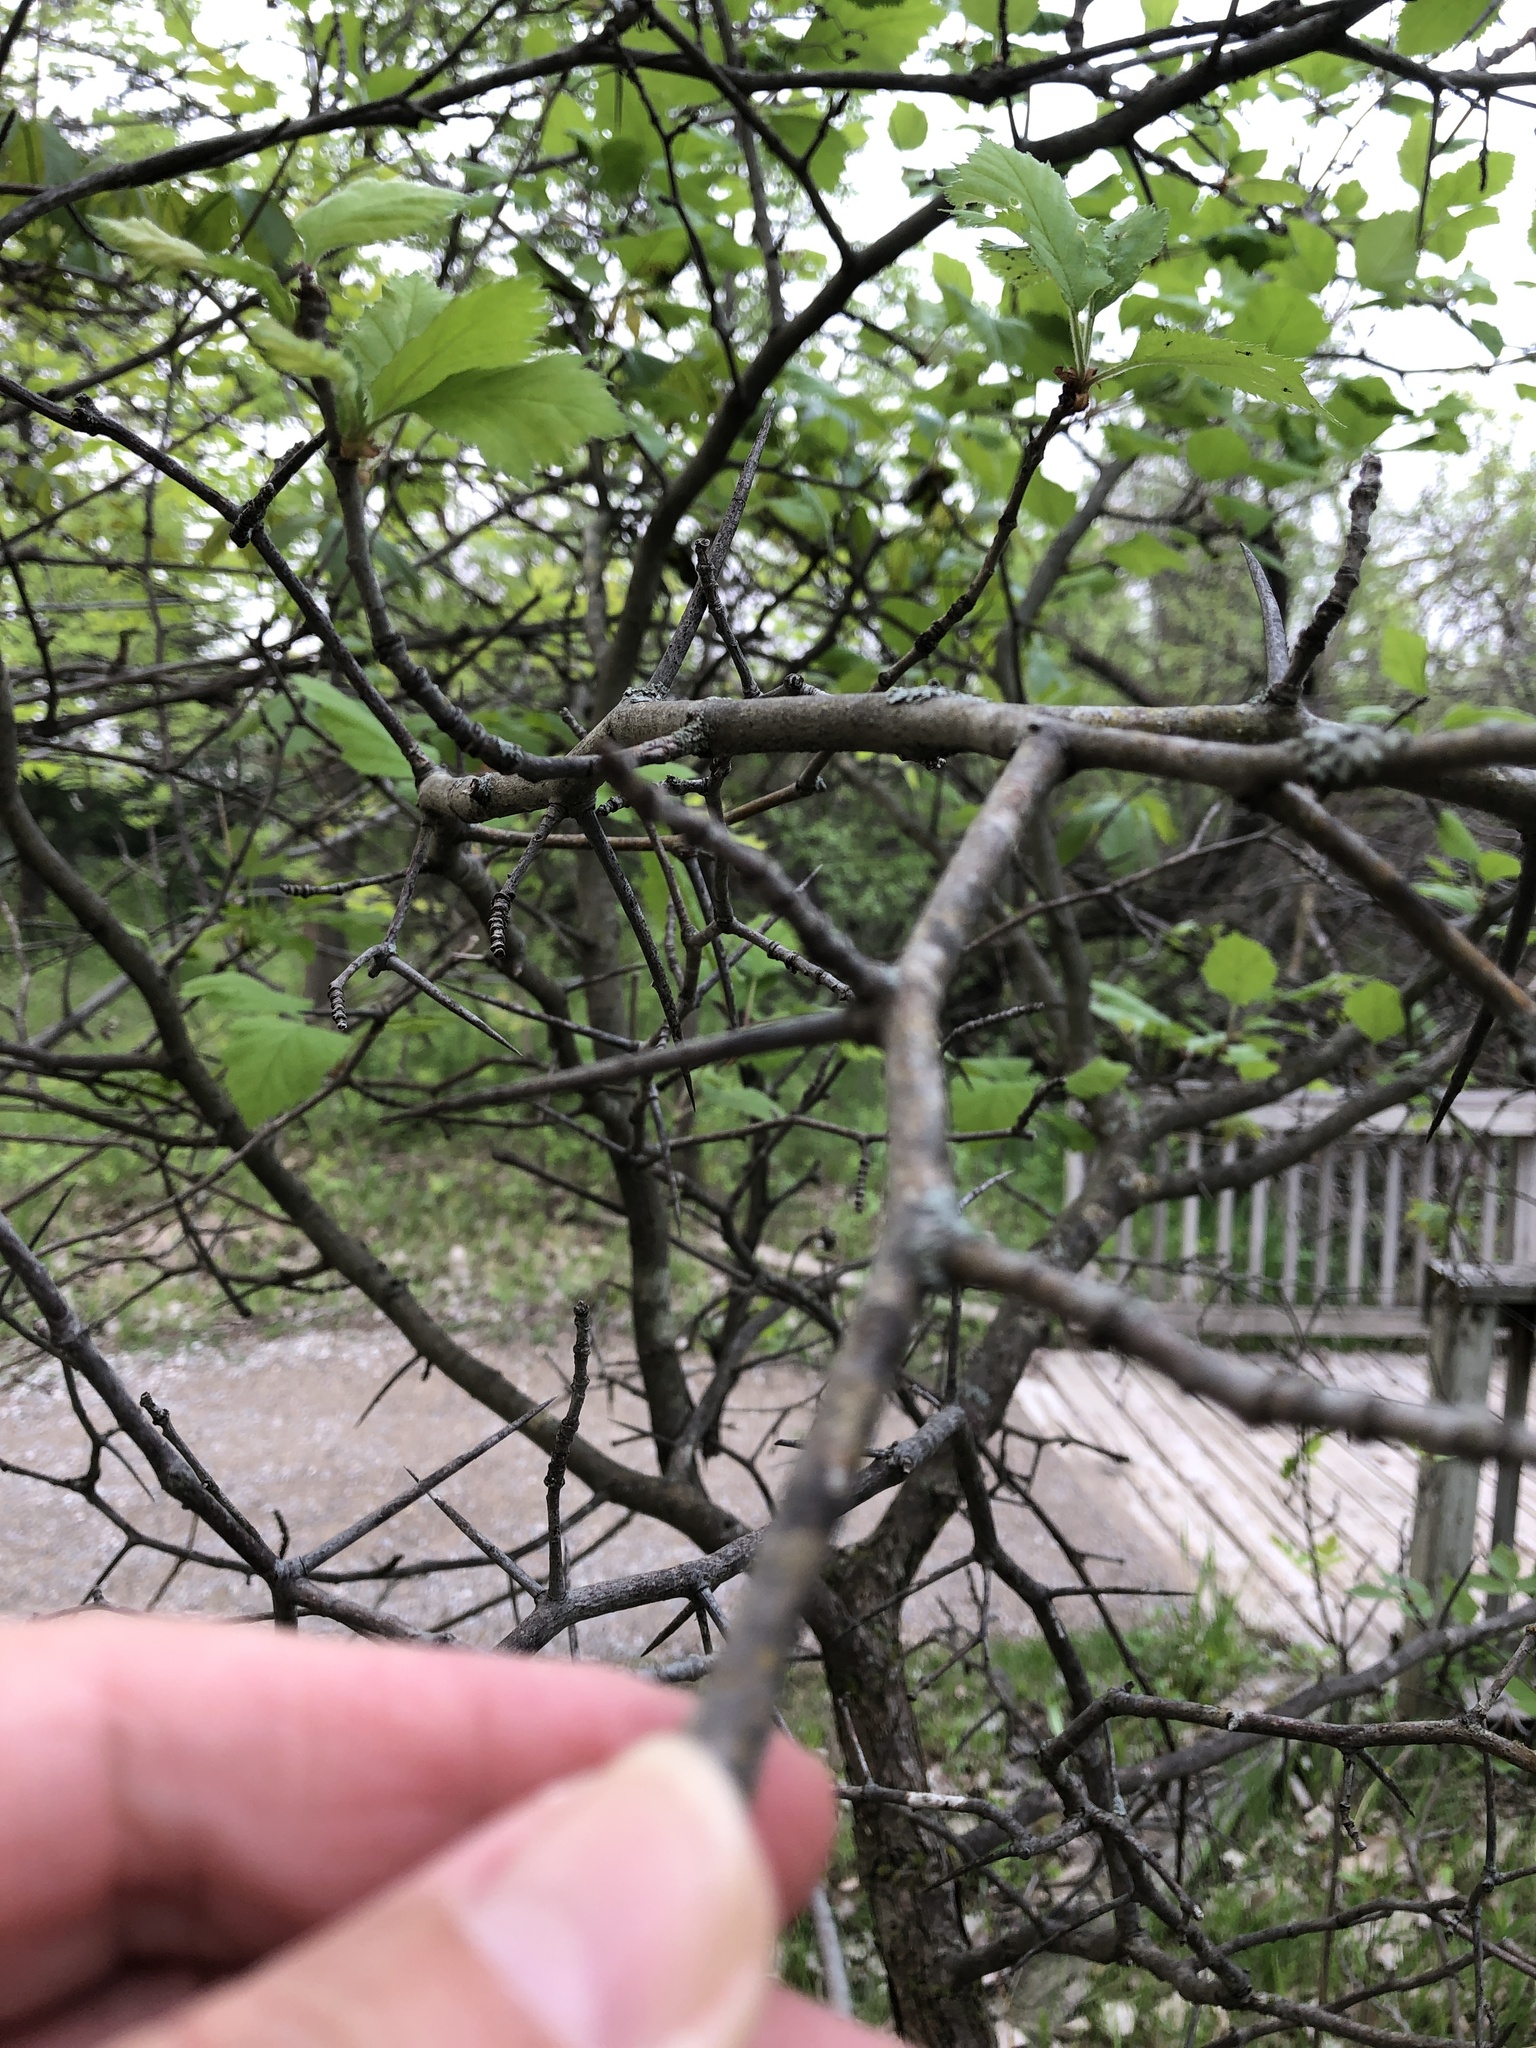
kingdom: Plantae
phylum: Tracheophyta
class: Magnoliopsida
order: Rosales
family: Rosaceae
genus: Crataegus
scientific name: Crataegus submollis
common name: Hairy cockspurthorn
